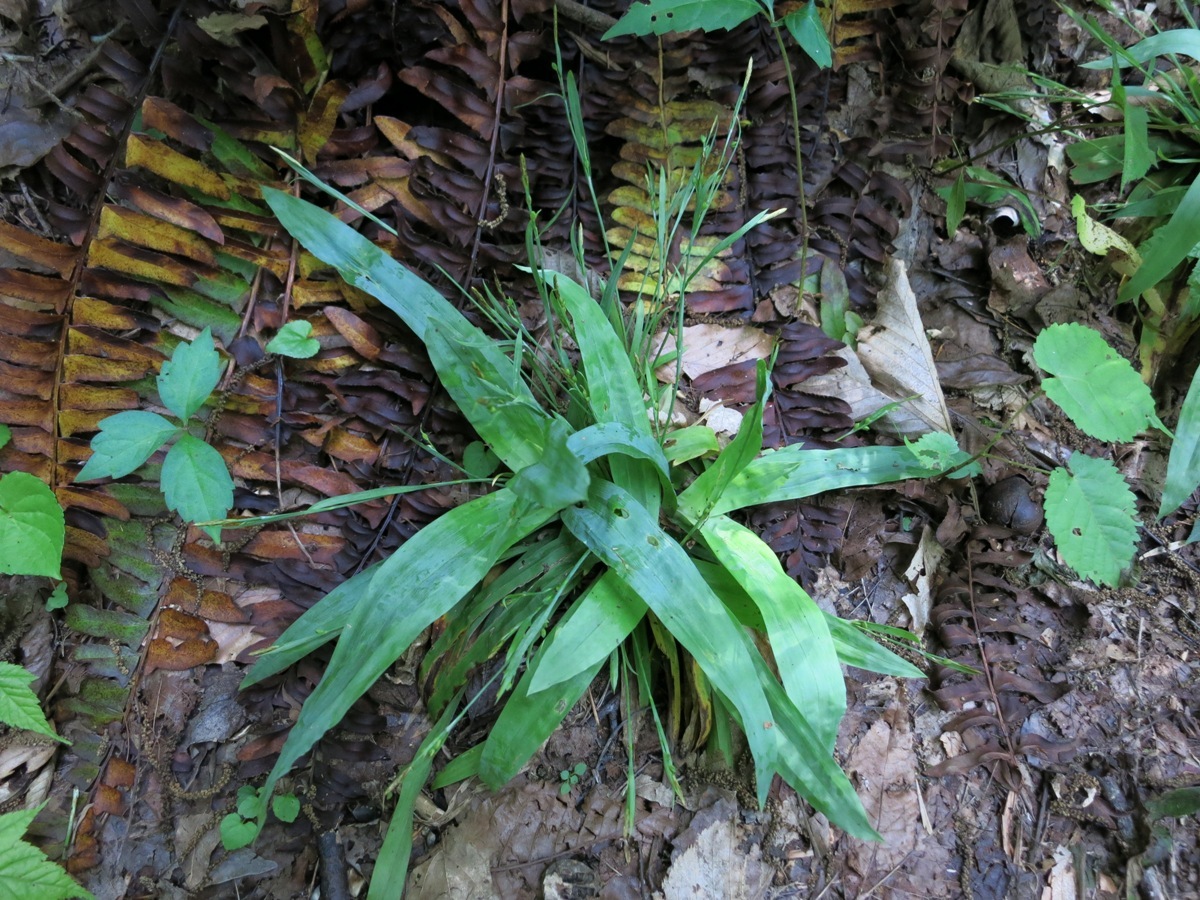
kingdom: Plantae
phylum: Tracheophyta
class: Liliopsida
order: Poales
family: Cyperaceae
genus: Carex
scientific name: Carex platyphylla
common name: Broad-leaved sedge
